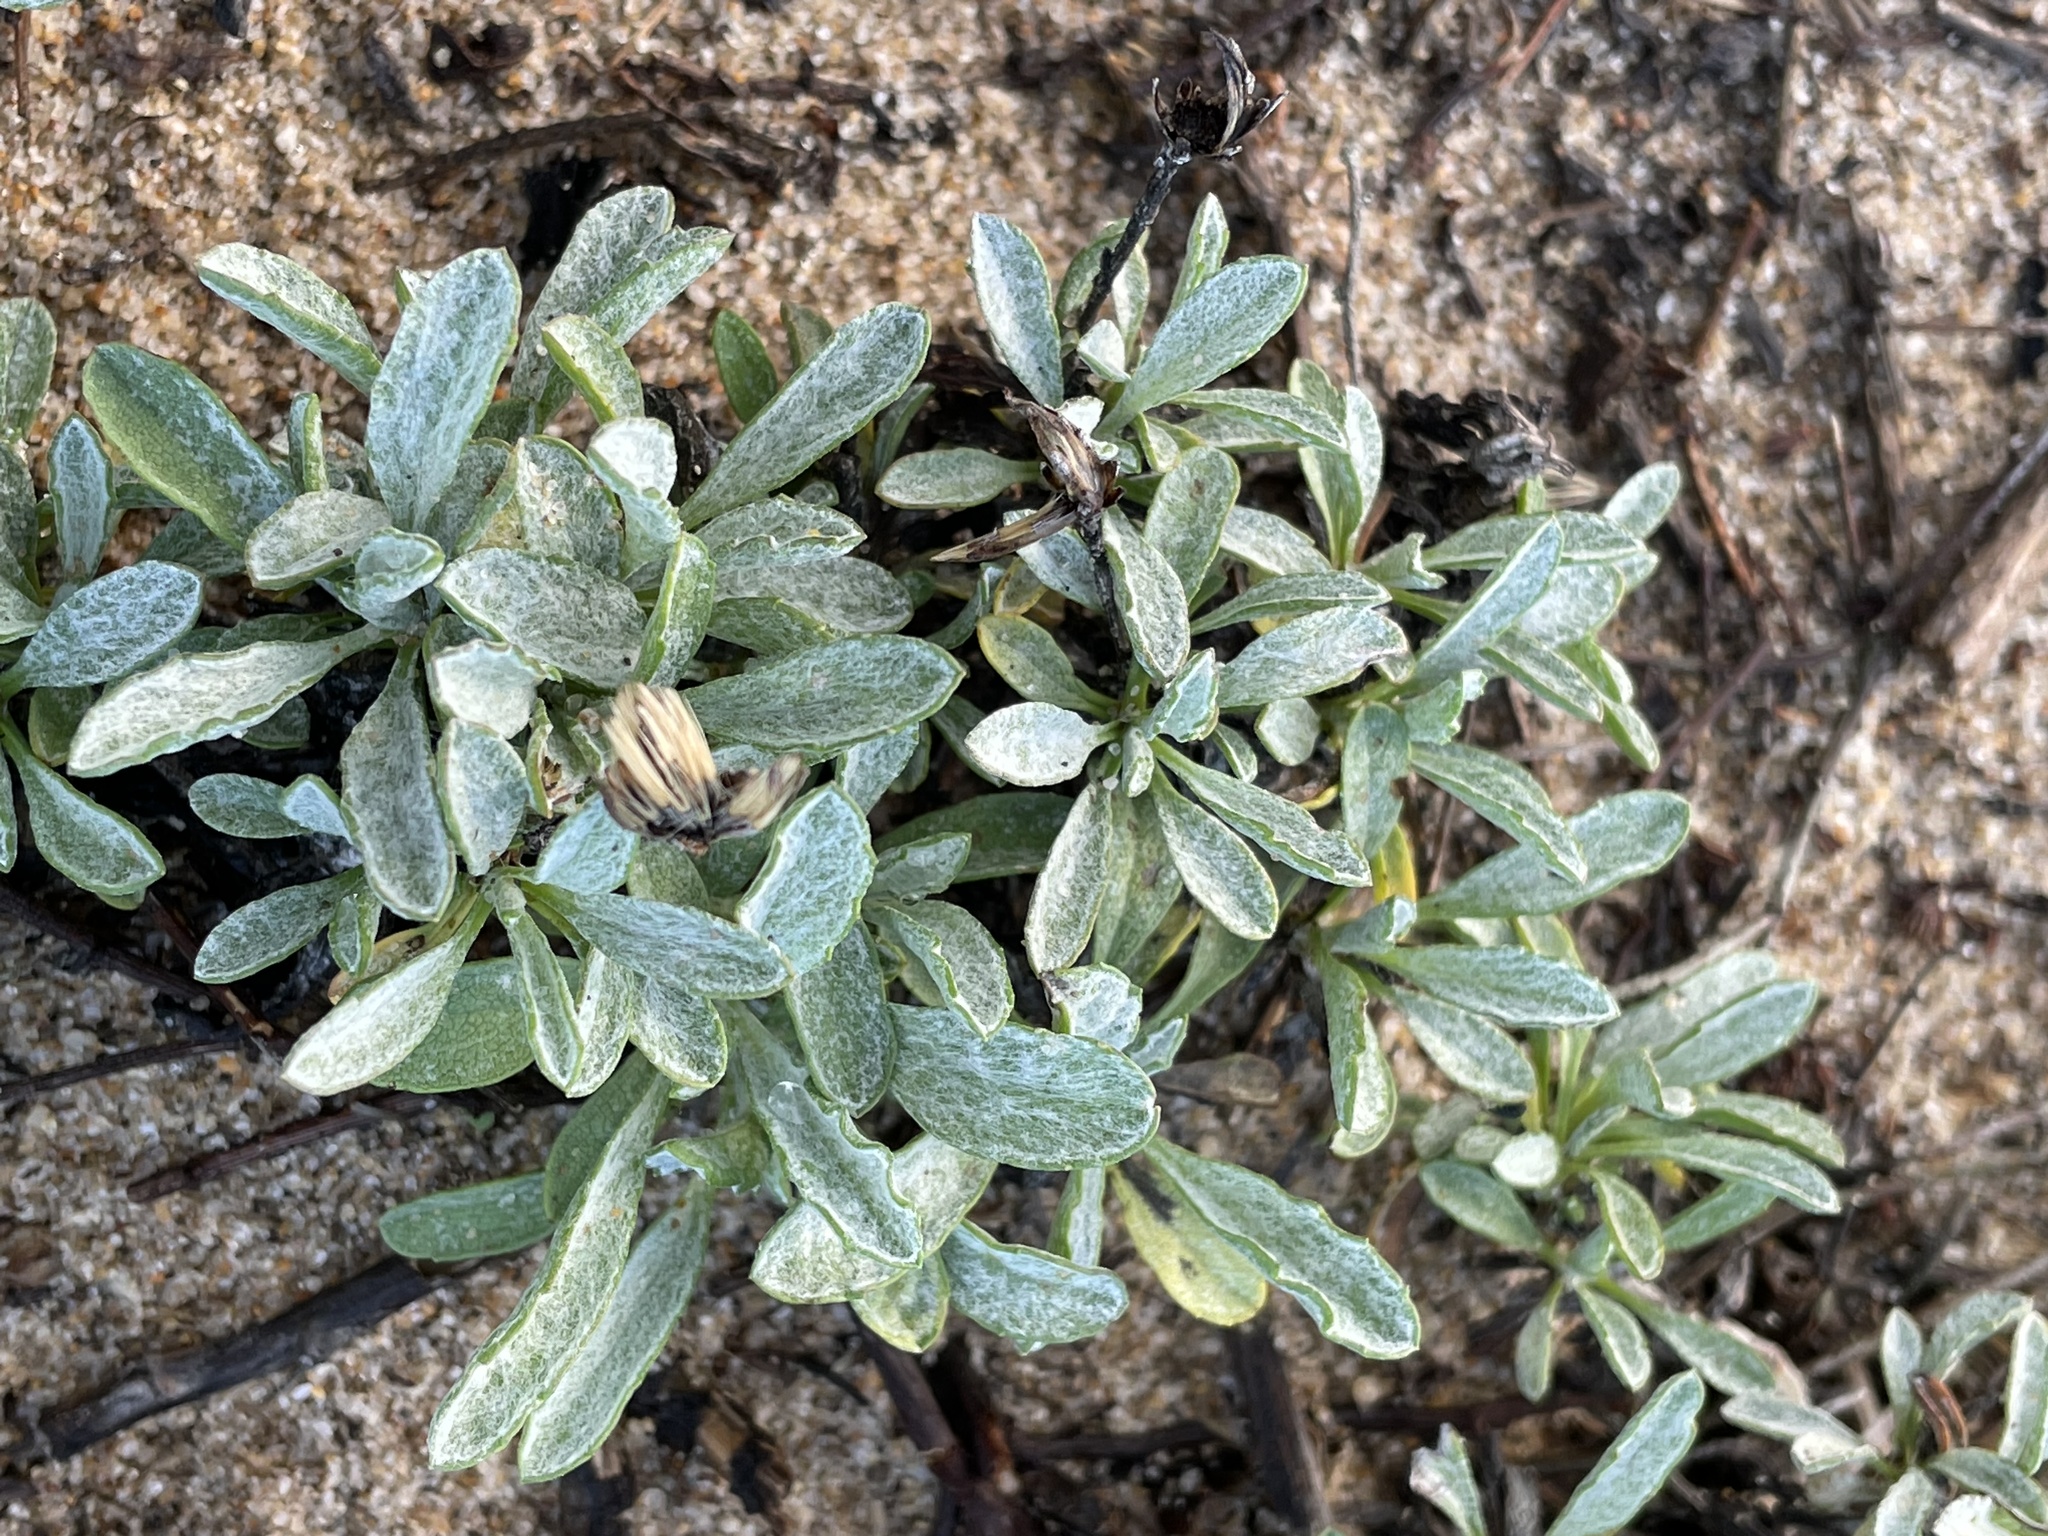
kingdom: Plantae
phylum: Tracheophyta
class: Magnoliopsida
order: Asterales
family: Asteraceae
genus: Corethrogyne
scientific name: Corethrogyne filaginifolia
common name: Sand-aster
